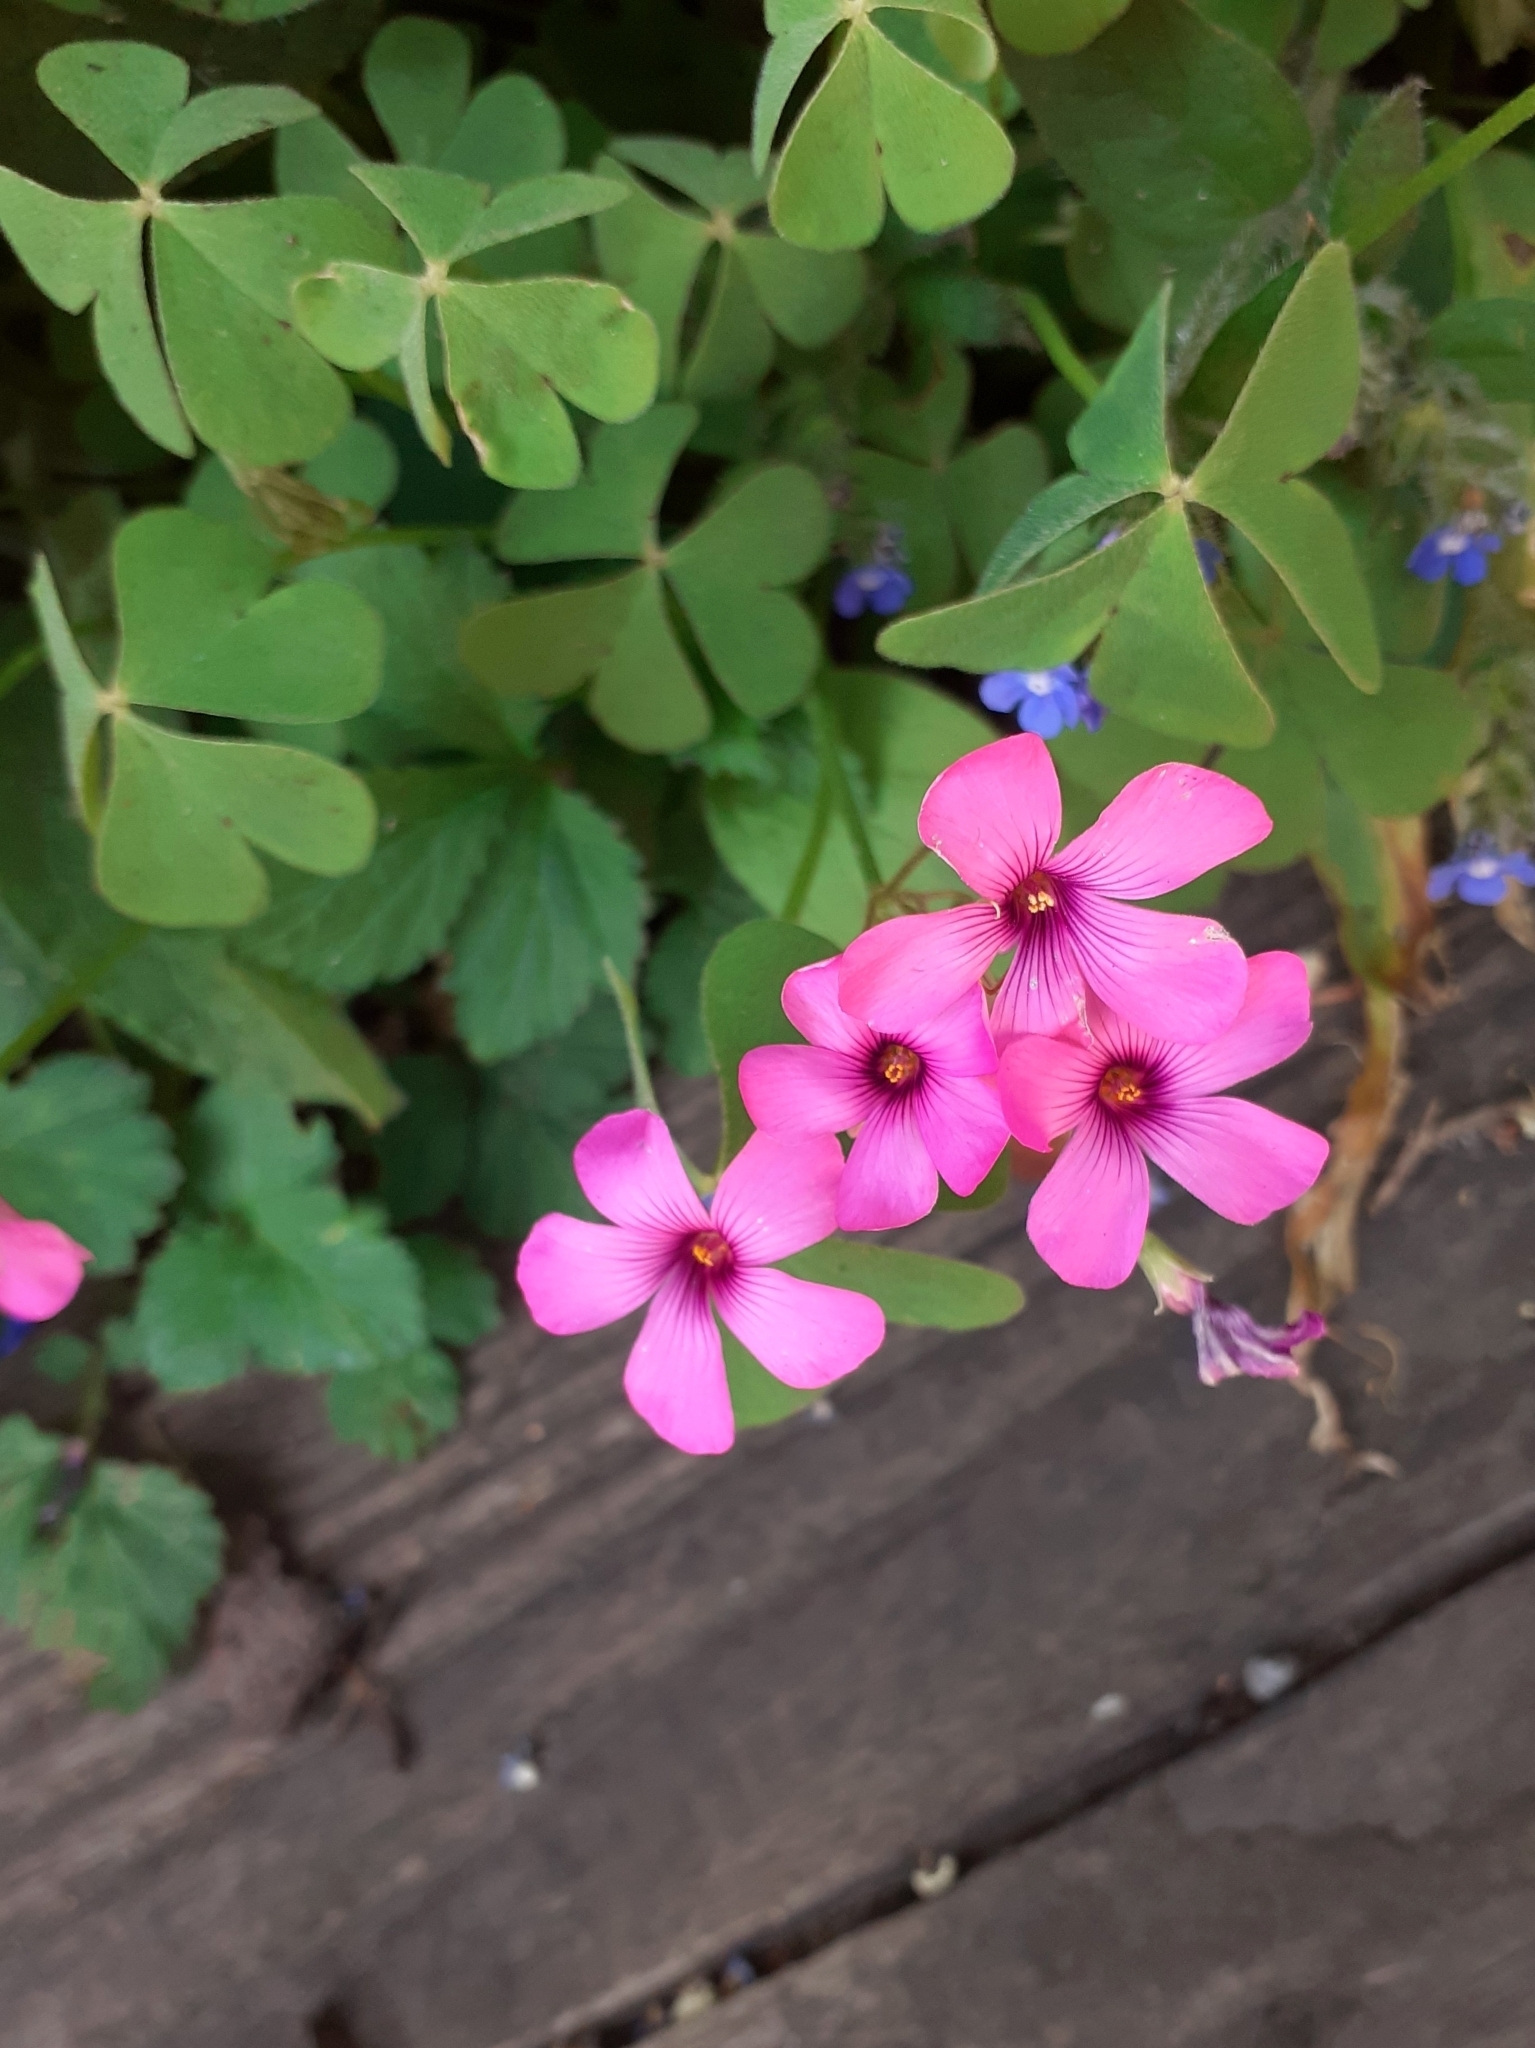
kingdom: Plantae
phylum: Tracheophyta
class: Magnoliopsida
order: Oxalidales
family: Oxalidaceae
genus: Oxalis
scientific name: Oxalis articulata
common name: Pink-sorrel
